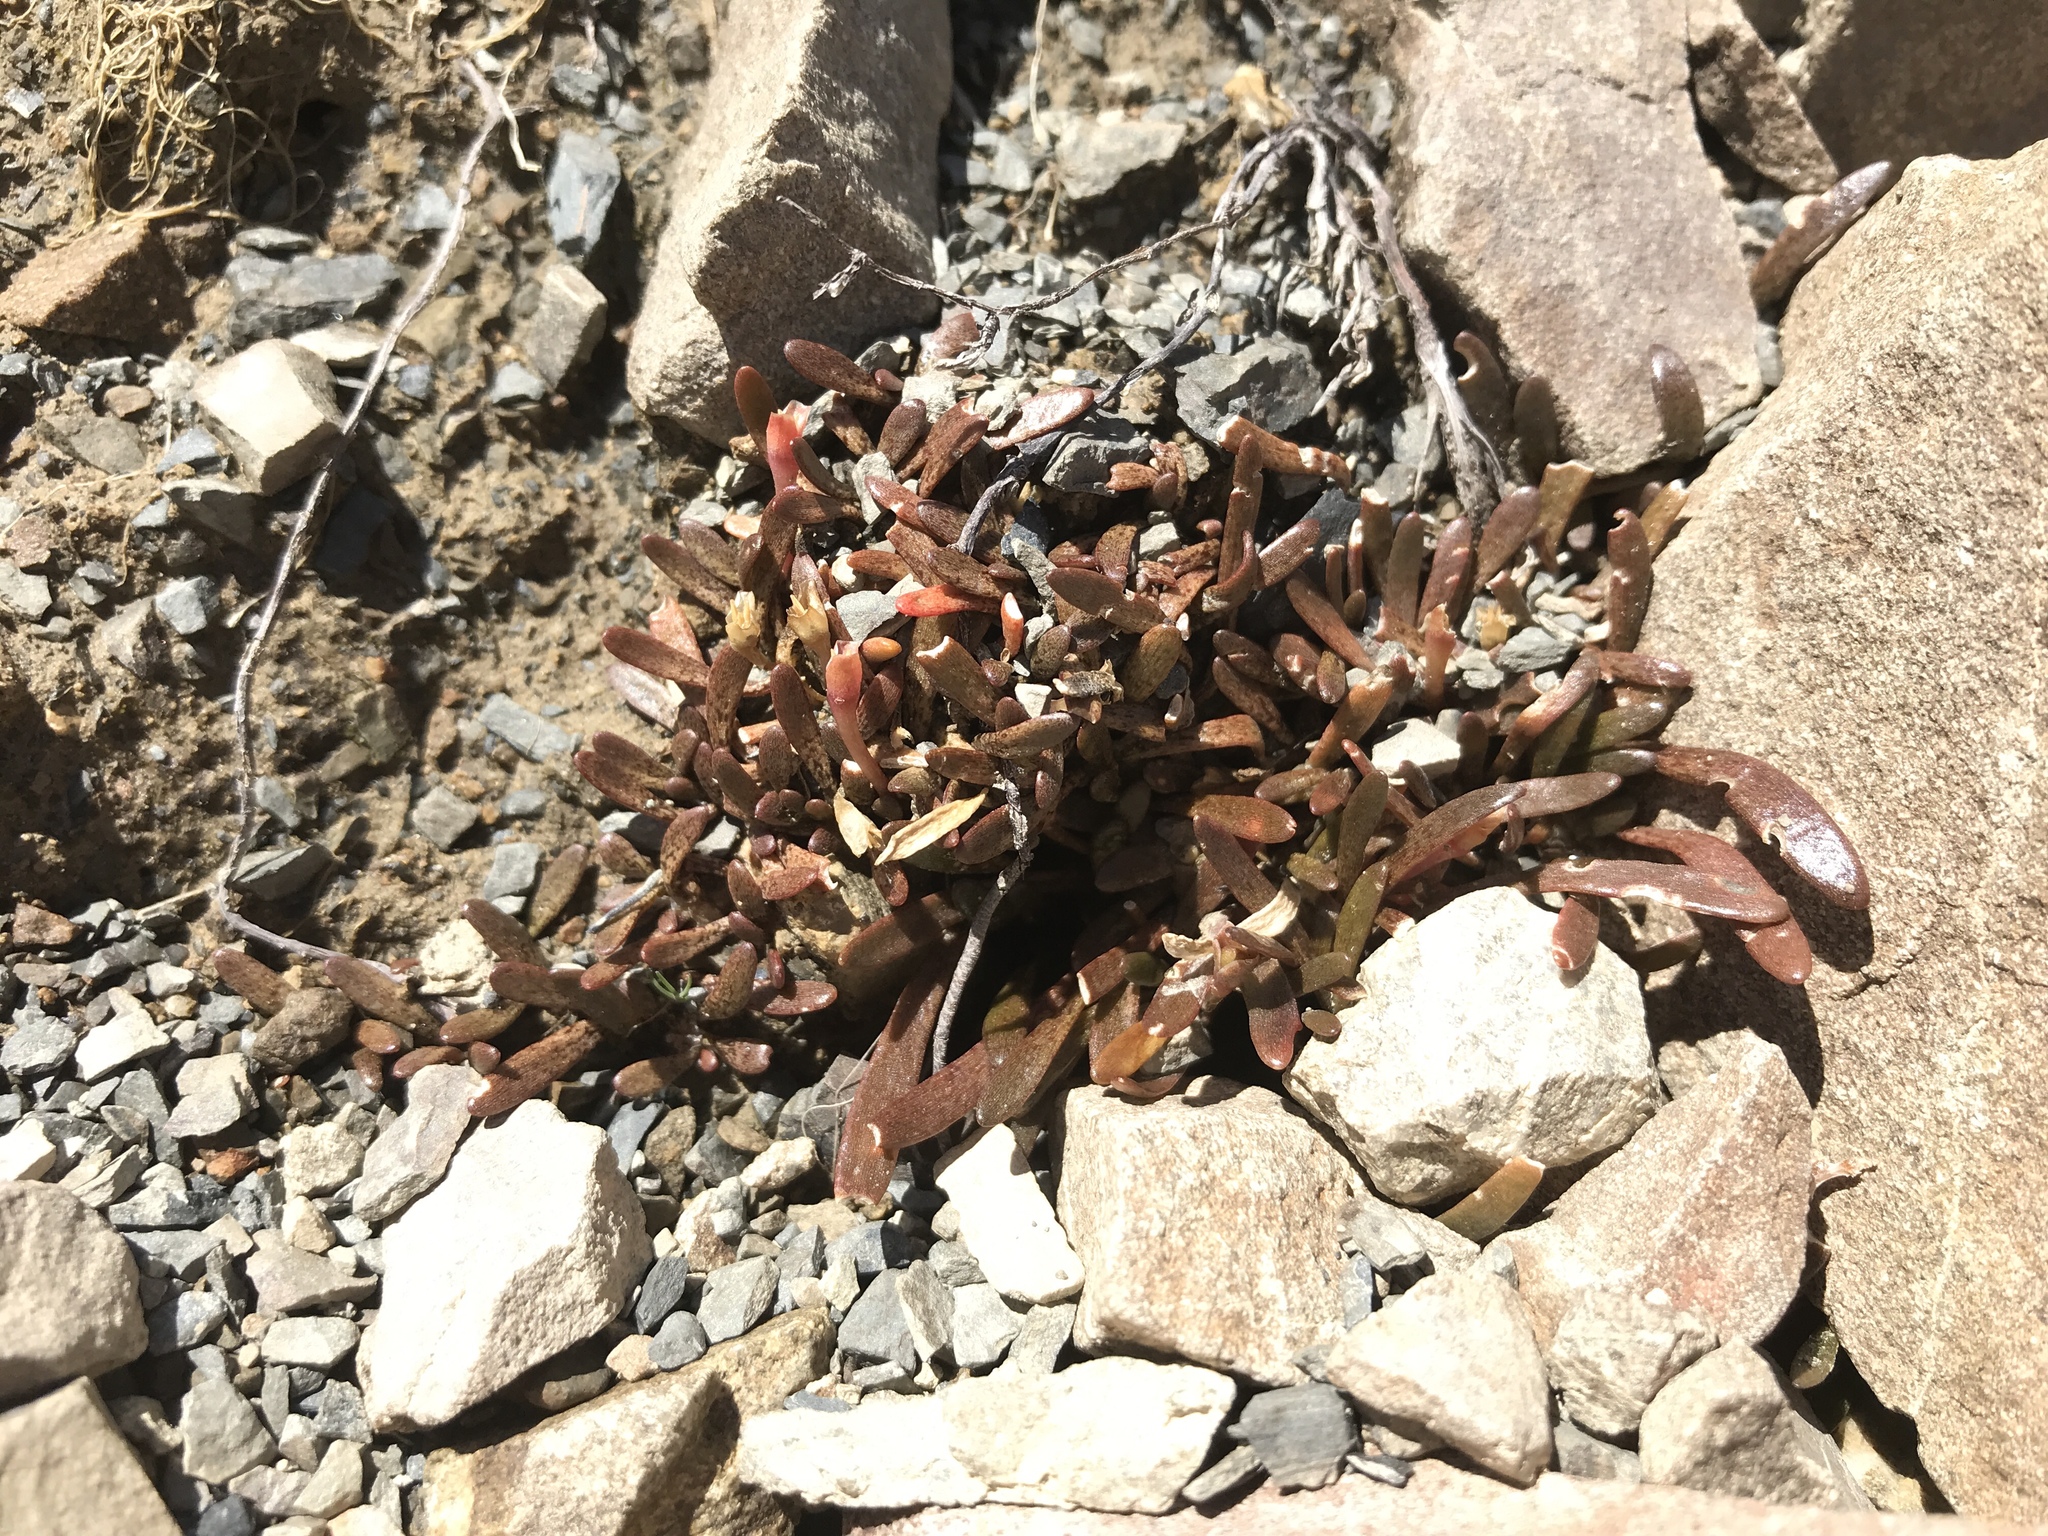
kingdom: Plantae
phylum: Tracheophyta
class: Magnoliopsida
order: Caryophyllales
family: Montiaceae
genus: Montia
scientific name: Montia erythrophylla
